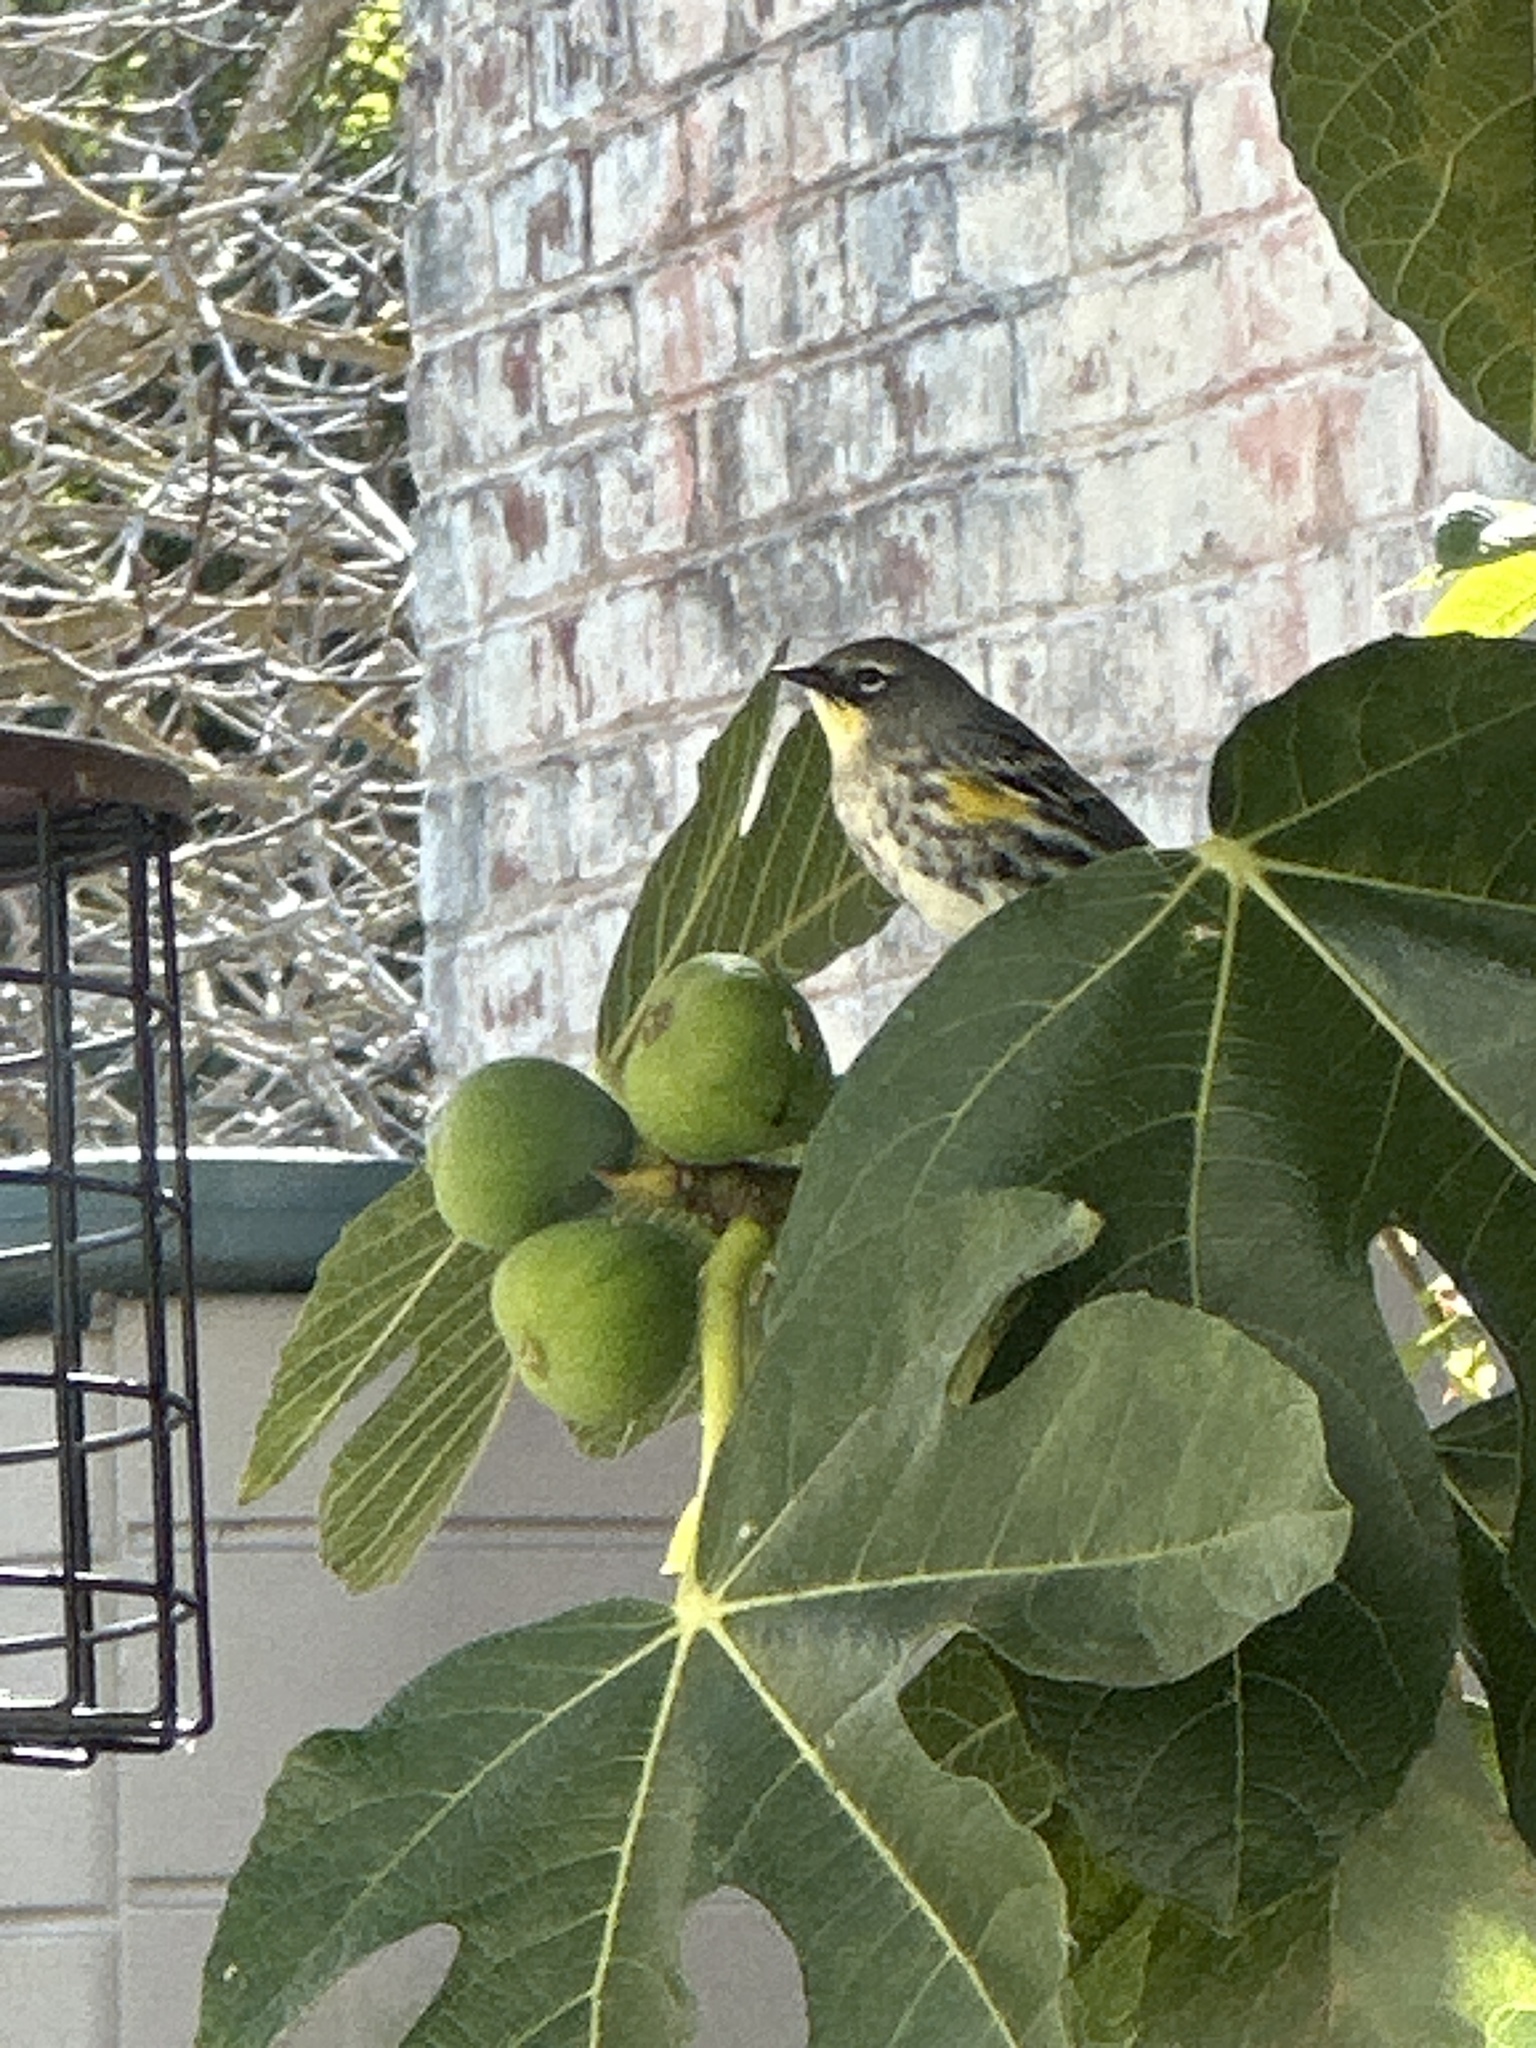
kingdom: Animalia
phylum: Chordata
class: Aves
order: Passeriformes
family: Parulidae
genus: Setophaga
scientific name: Setophaga coronata
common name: Myrtle warbler
